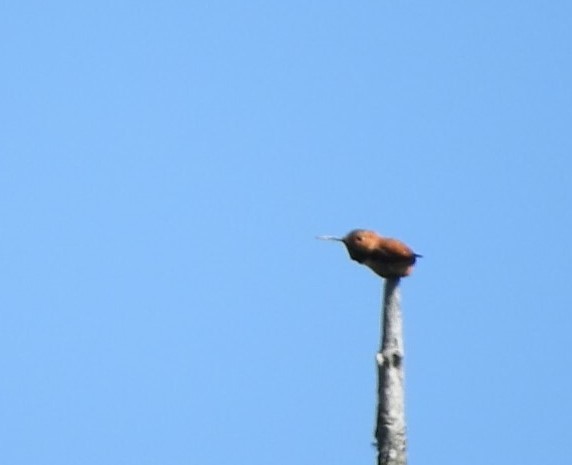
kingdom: Animalia
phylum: Chordata
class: Aves
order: Apodiformes
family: Trochilidae
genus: Selasphorus
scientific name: Selasphorus rufus
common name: Rufous hummingbird
